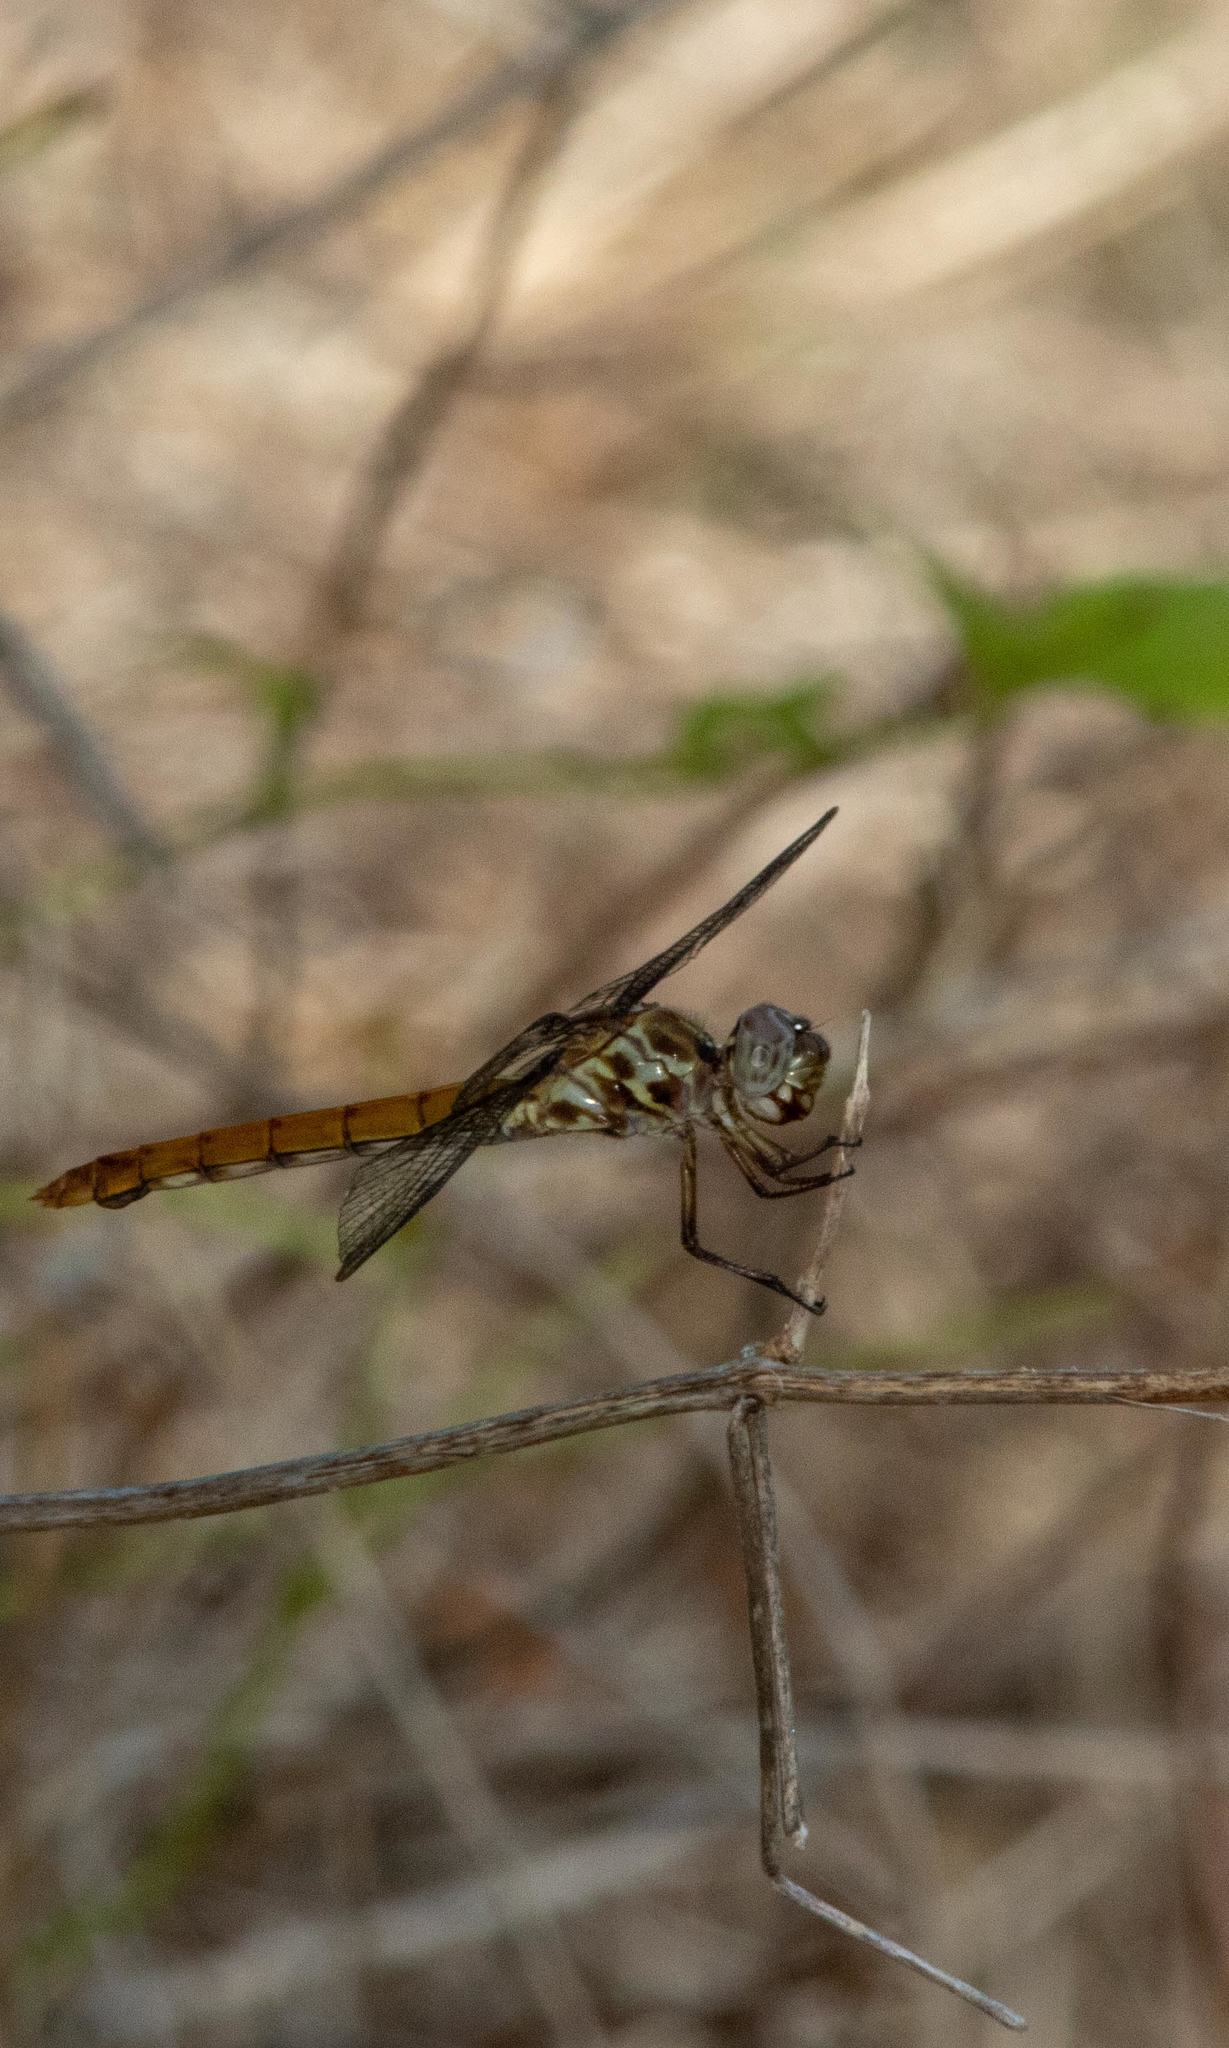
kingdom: Animalia
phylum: Arthropoda
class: Insecta
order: Odonata
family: Libellulidae
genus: Orthemis
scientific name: Orthemis ferruginea
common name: Roseate skimmer
